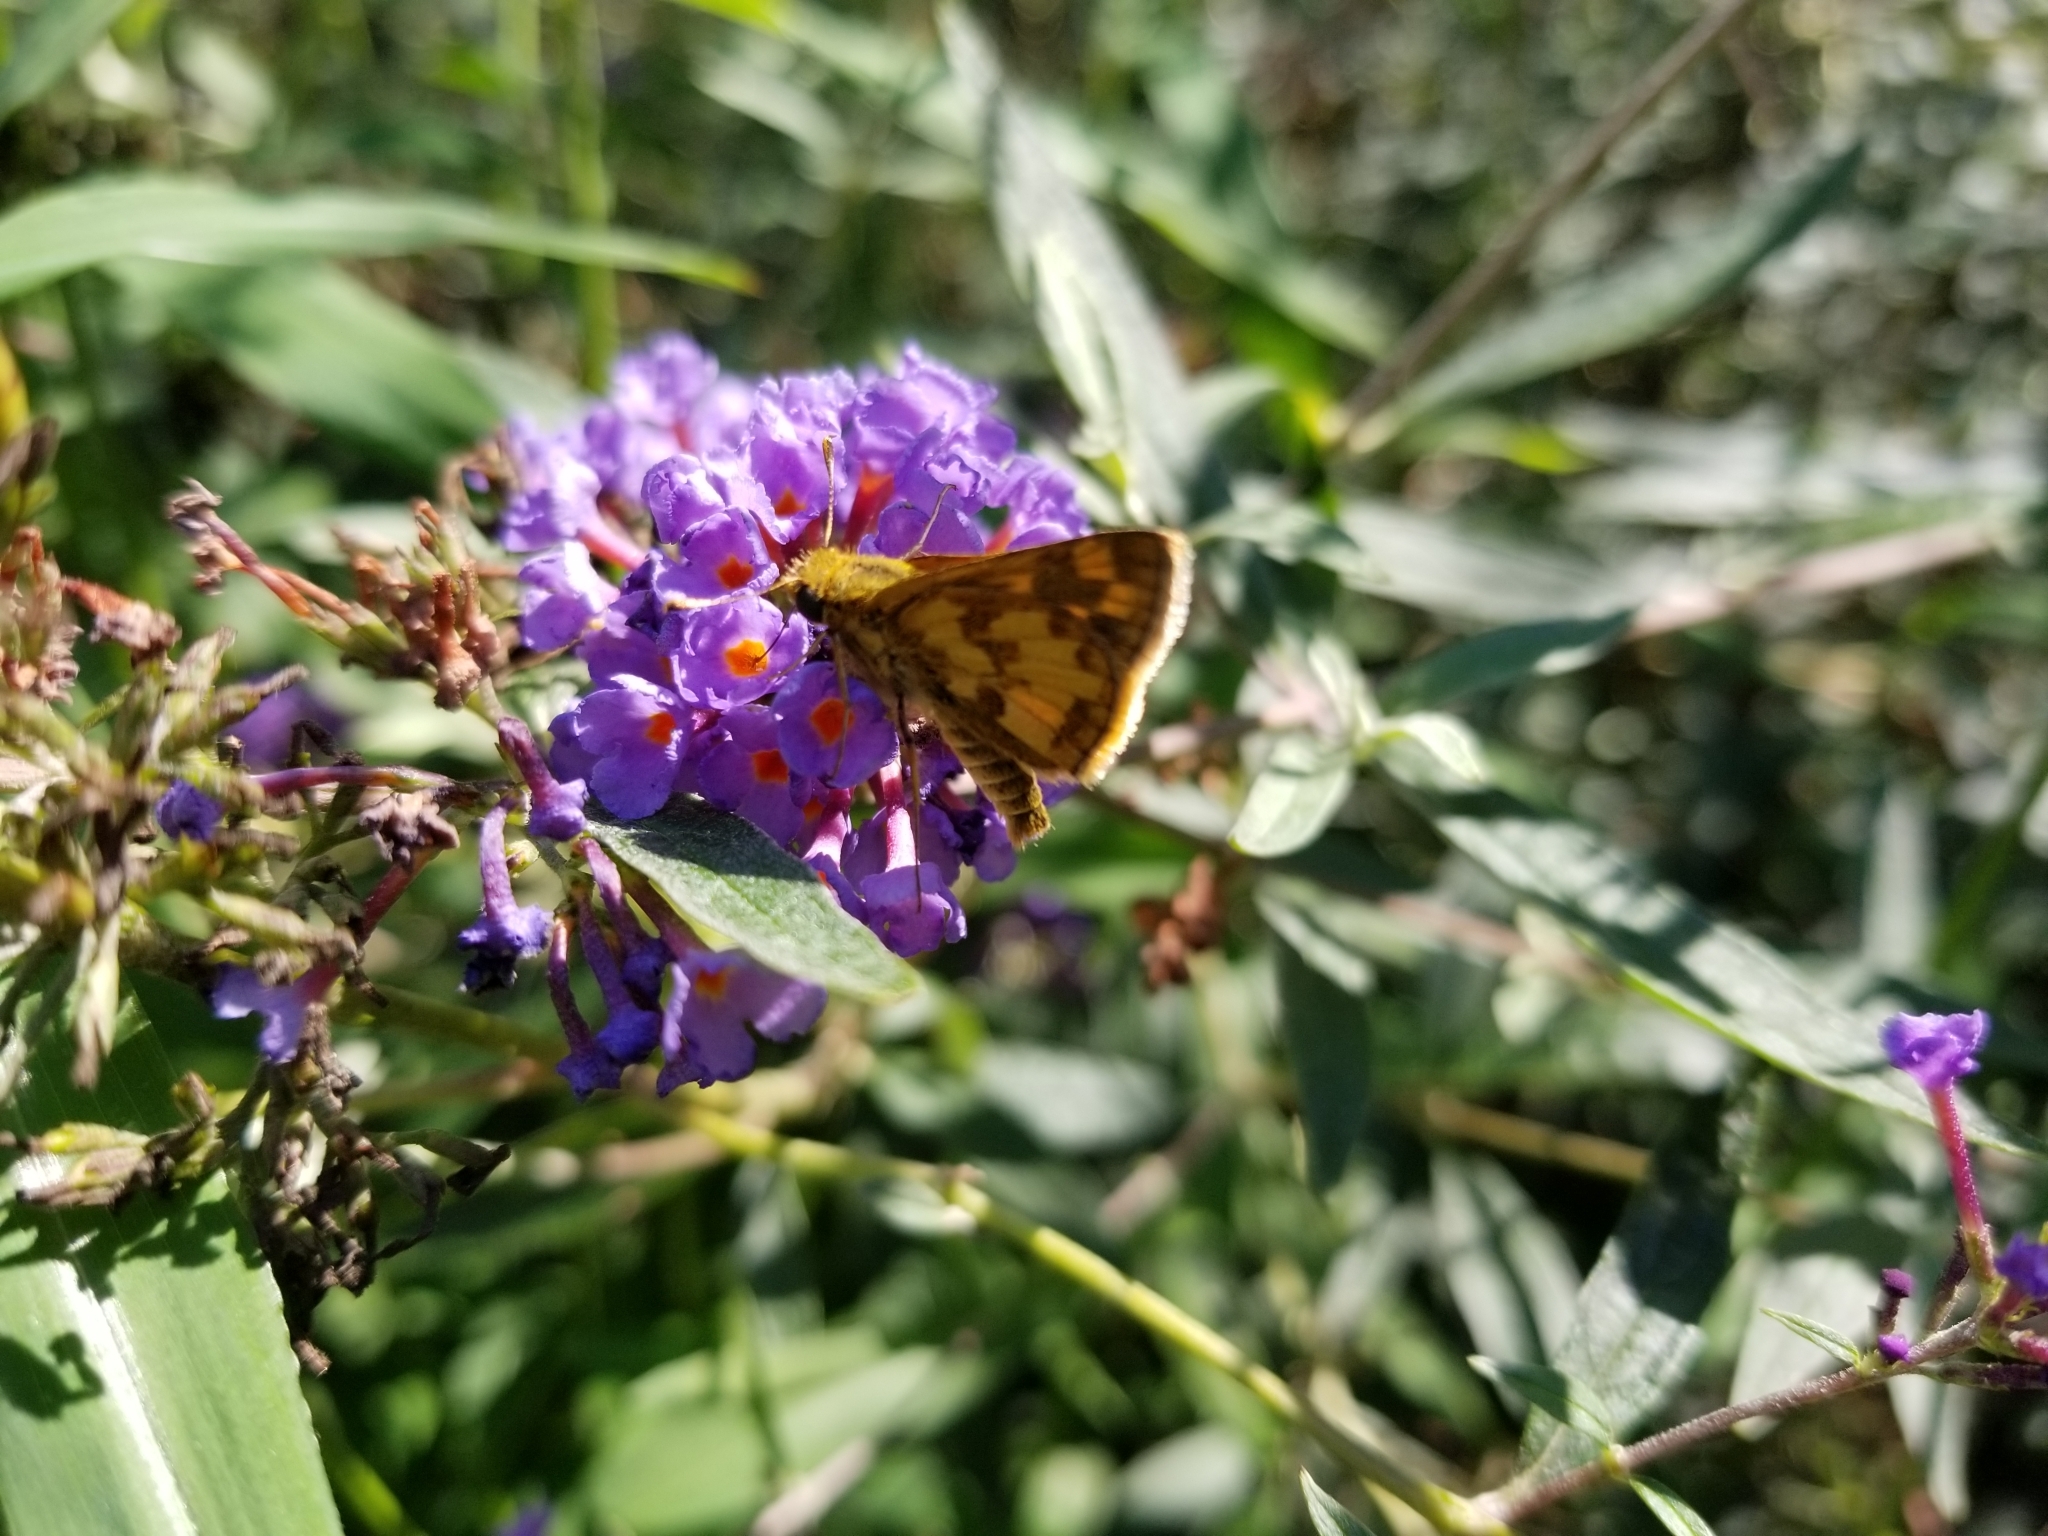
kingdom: Animalia
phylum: Arthropoda
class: Insecta
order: Lepidoptera
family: Hesperiidae
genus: Polites
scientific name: Polites coras
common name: Peck's skipper
